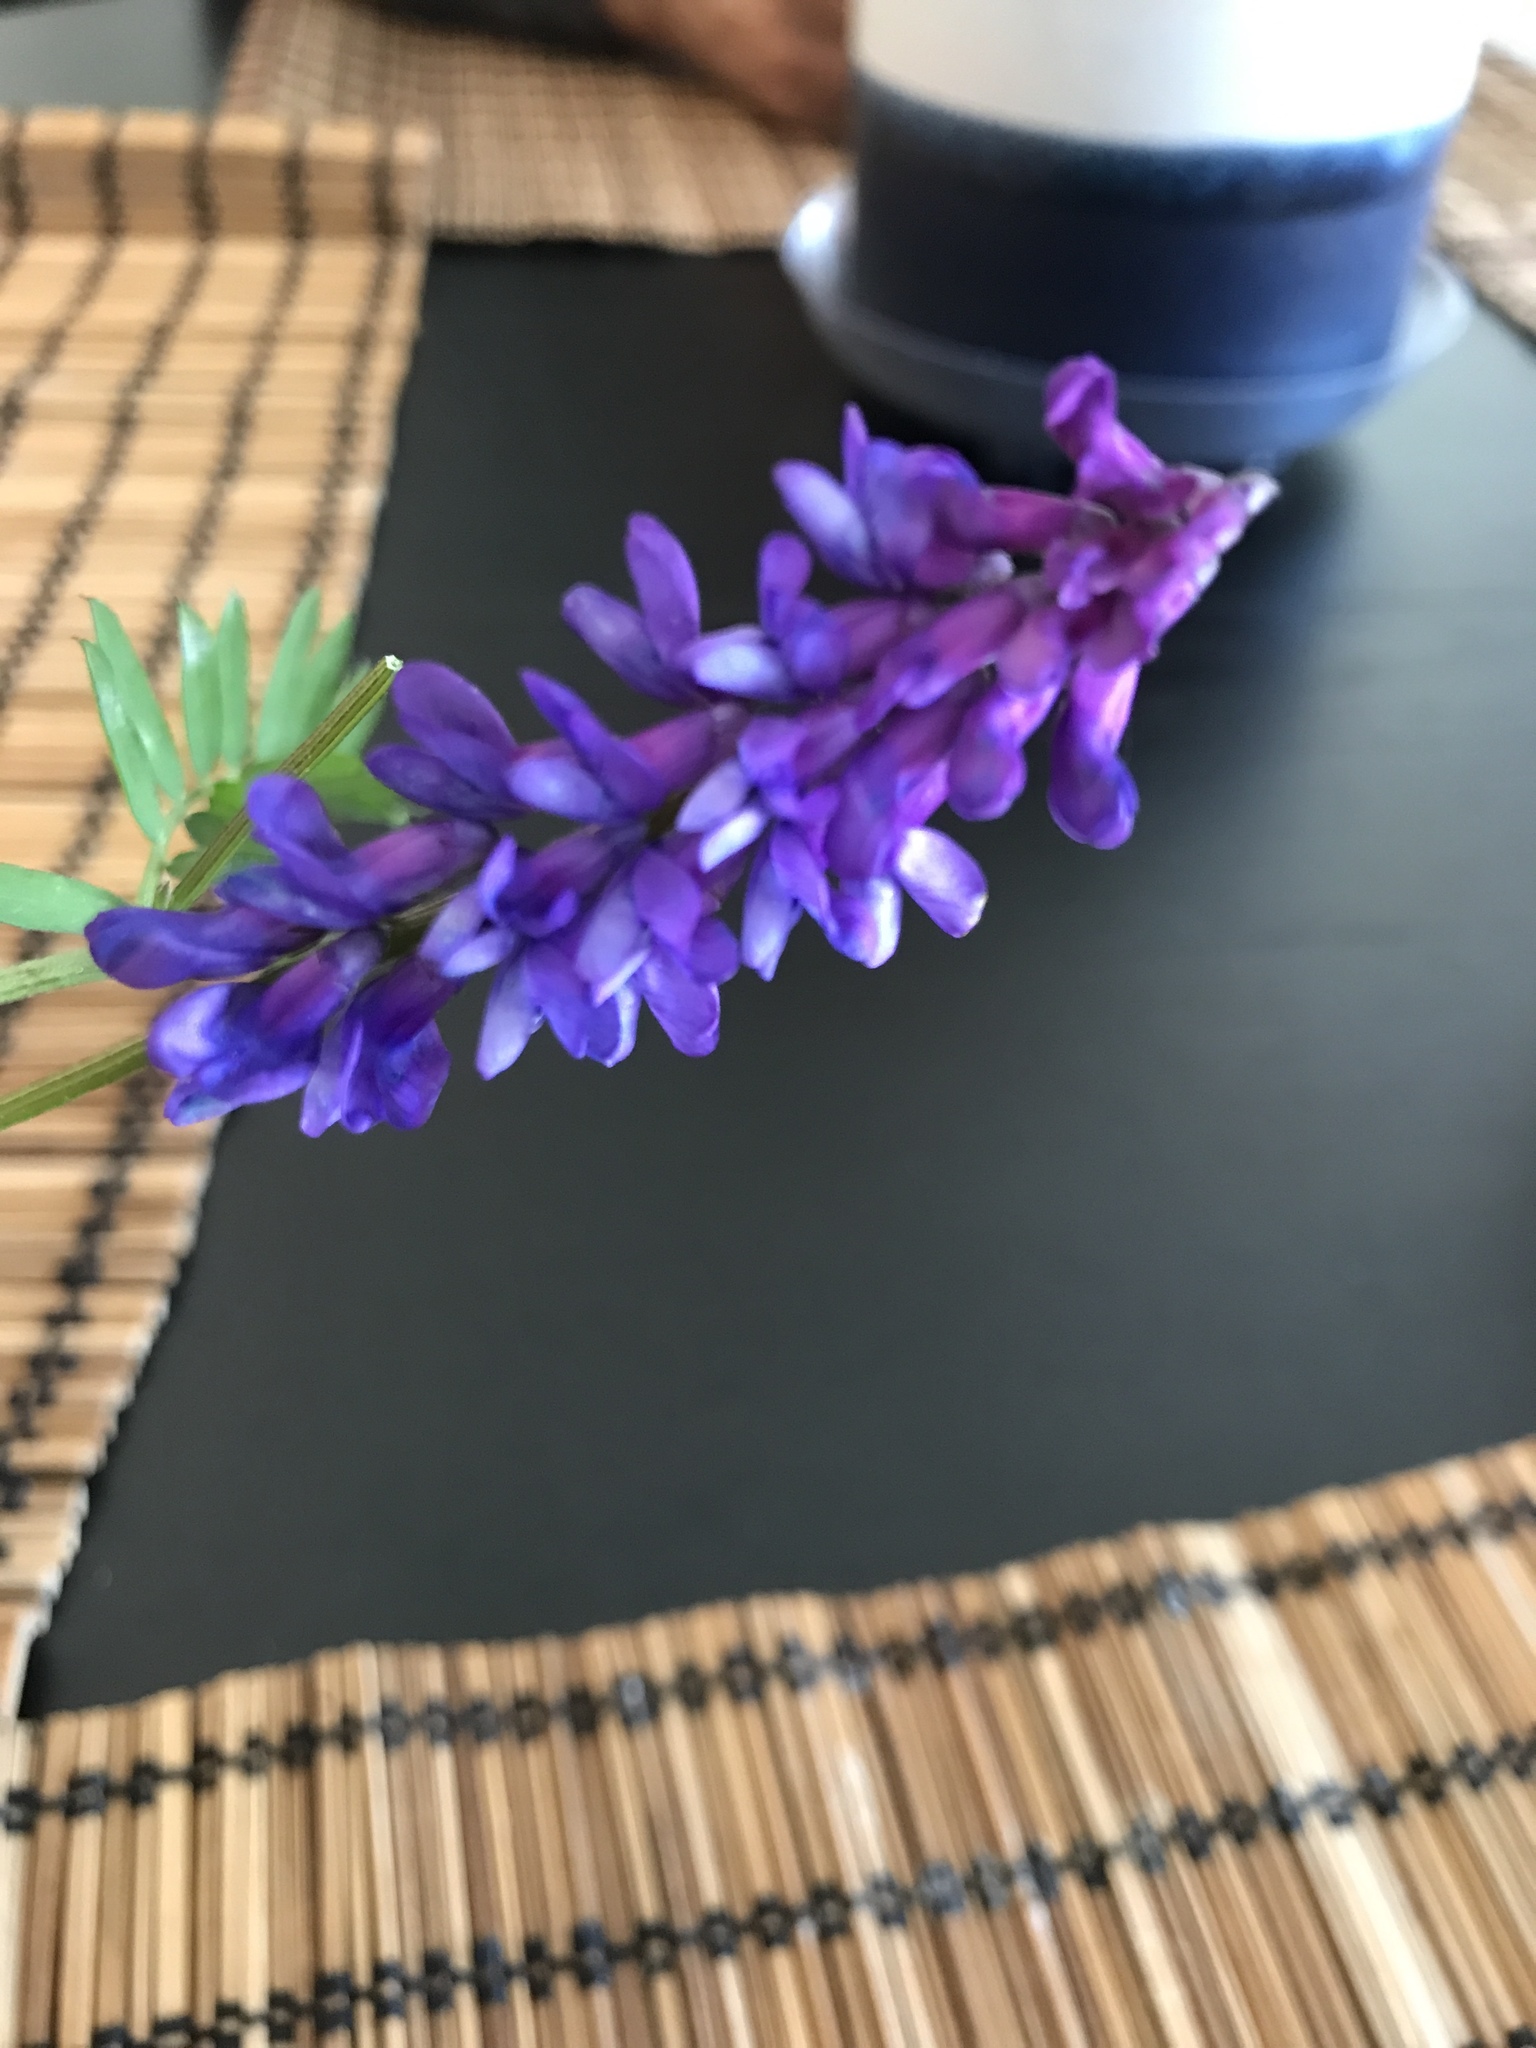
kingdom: Plantae
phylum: Tracheophyta
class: Magnoliopsida
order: Fabales
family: Fabaceae
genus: Vicia
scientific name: Vicia cracca
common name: Bird vetch
